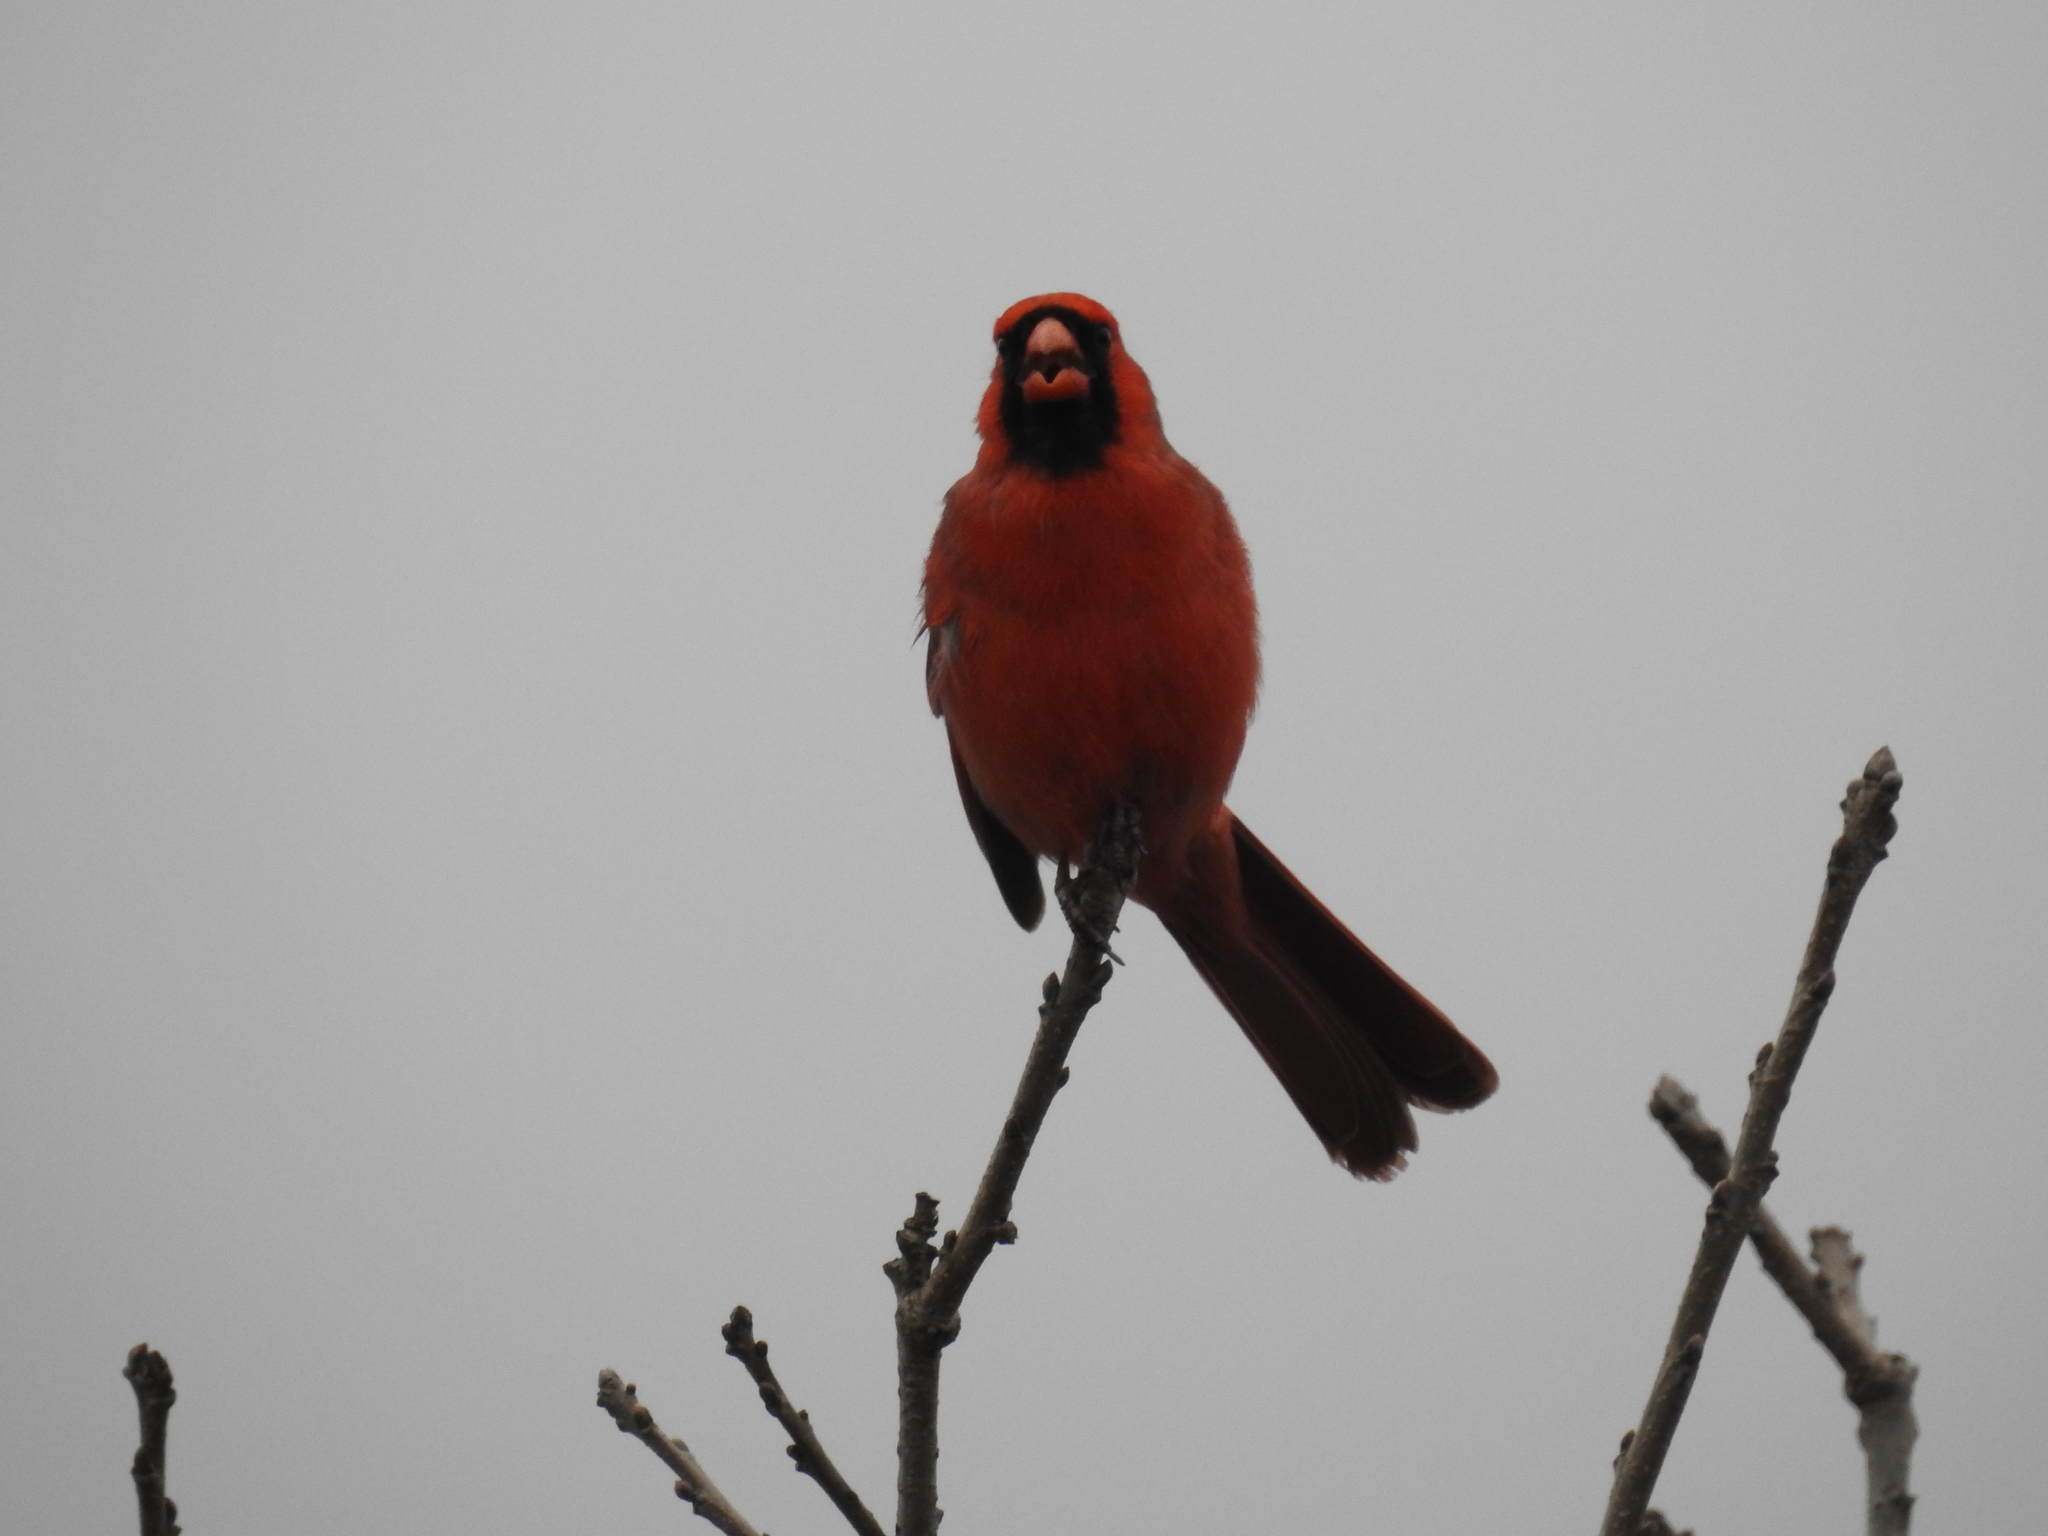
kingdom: Animalia
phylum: Chordata
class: Aves
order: Passeriformes
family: Cardinalidae
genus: Cardinalis
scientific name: Cardinalis cardinalis
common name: Northern cardinal
